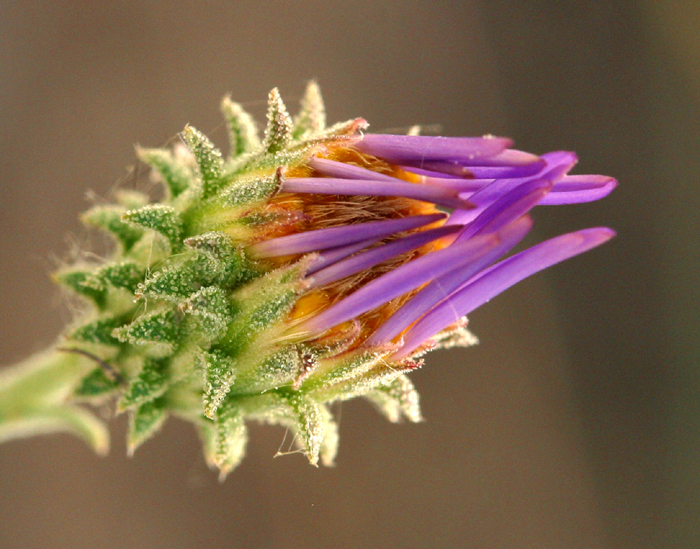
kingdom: Plantae
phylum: Tracheophyta
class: Magnoliopsida
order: Asterales
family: Asteraceae
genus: Dieteria
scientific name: Dieteria canescens
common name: Hoary-aster
